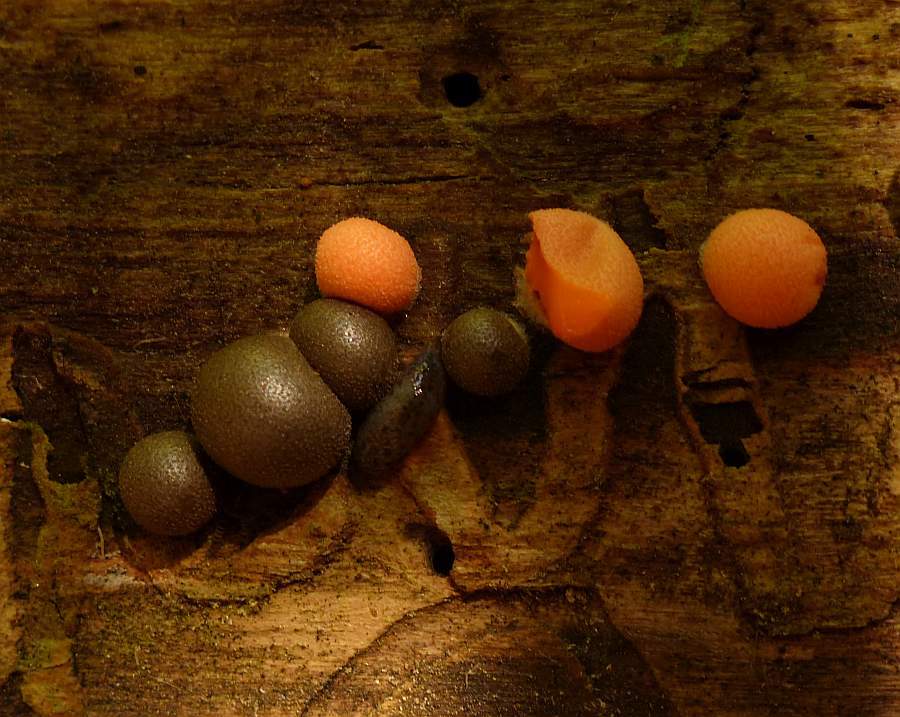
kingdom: Protozoa
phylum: Mycetozoa
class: Myxomycetes
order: Cribrariales
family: Tubiferaceae
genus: Lycogala
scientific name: Lycogala epidendrum
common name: Wolf's milk
